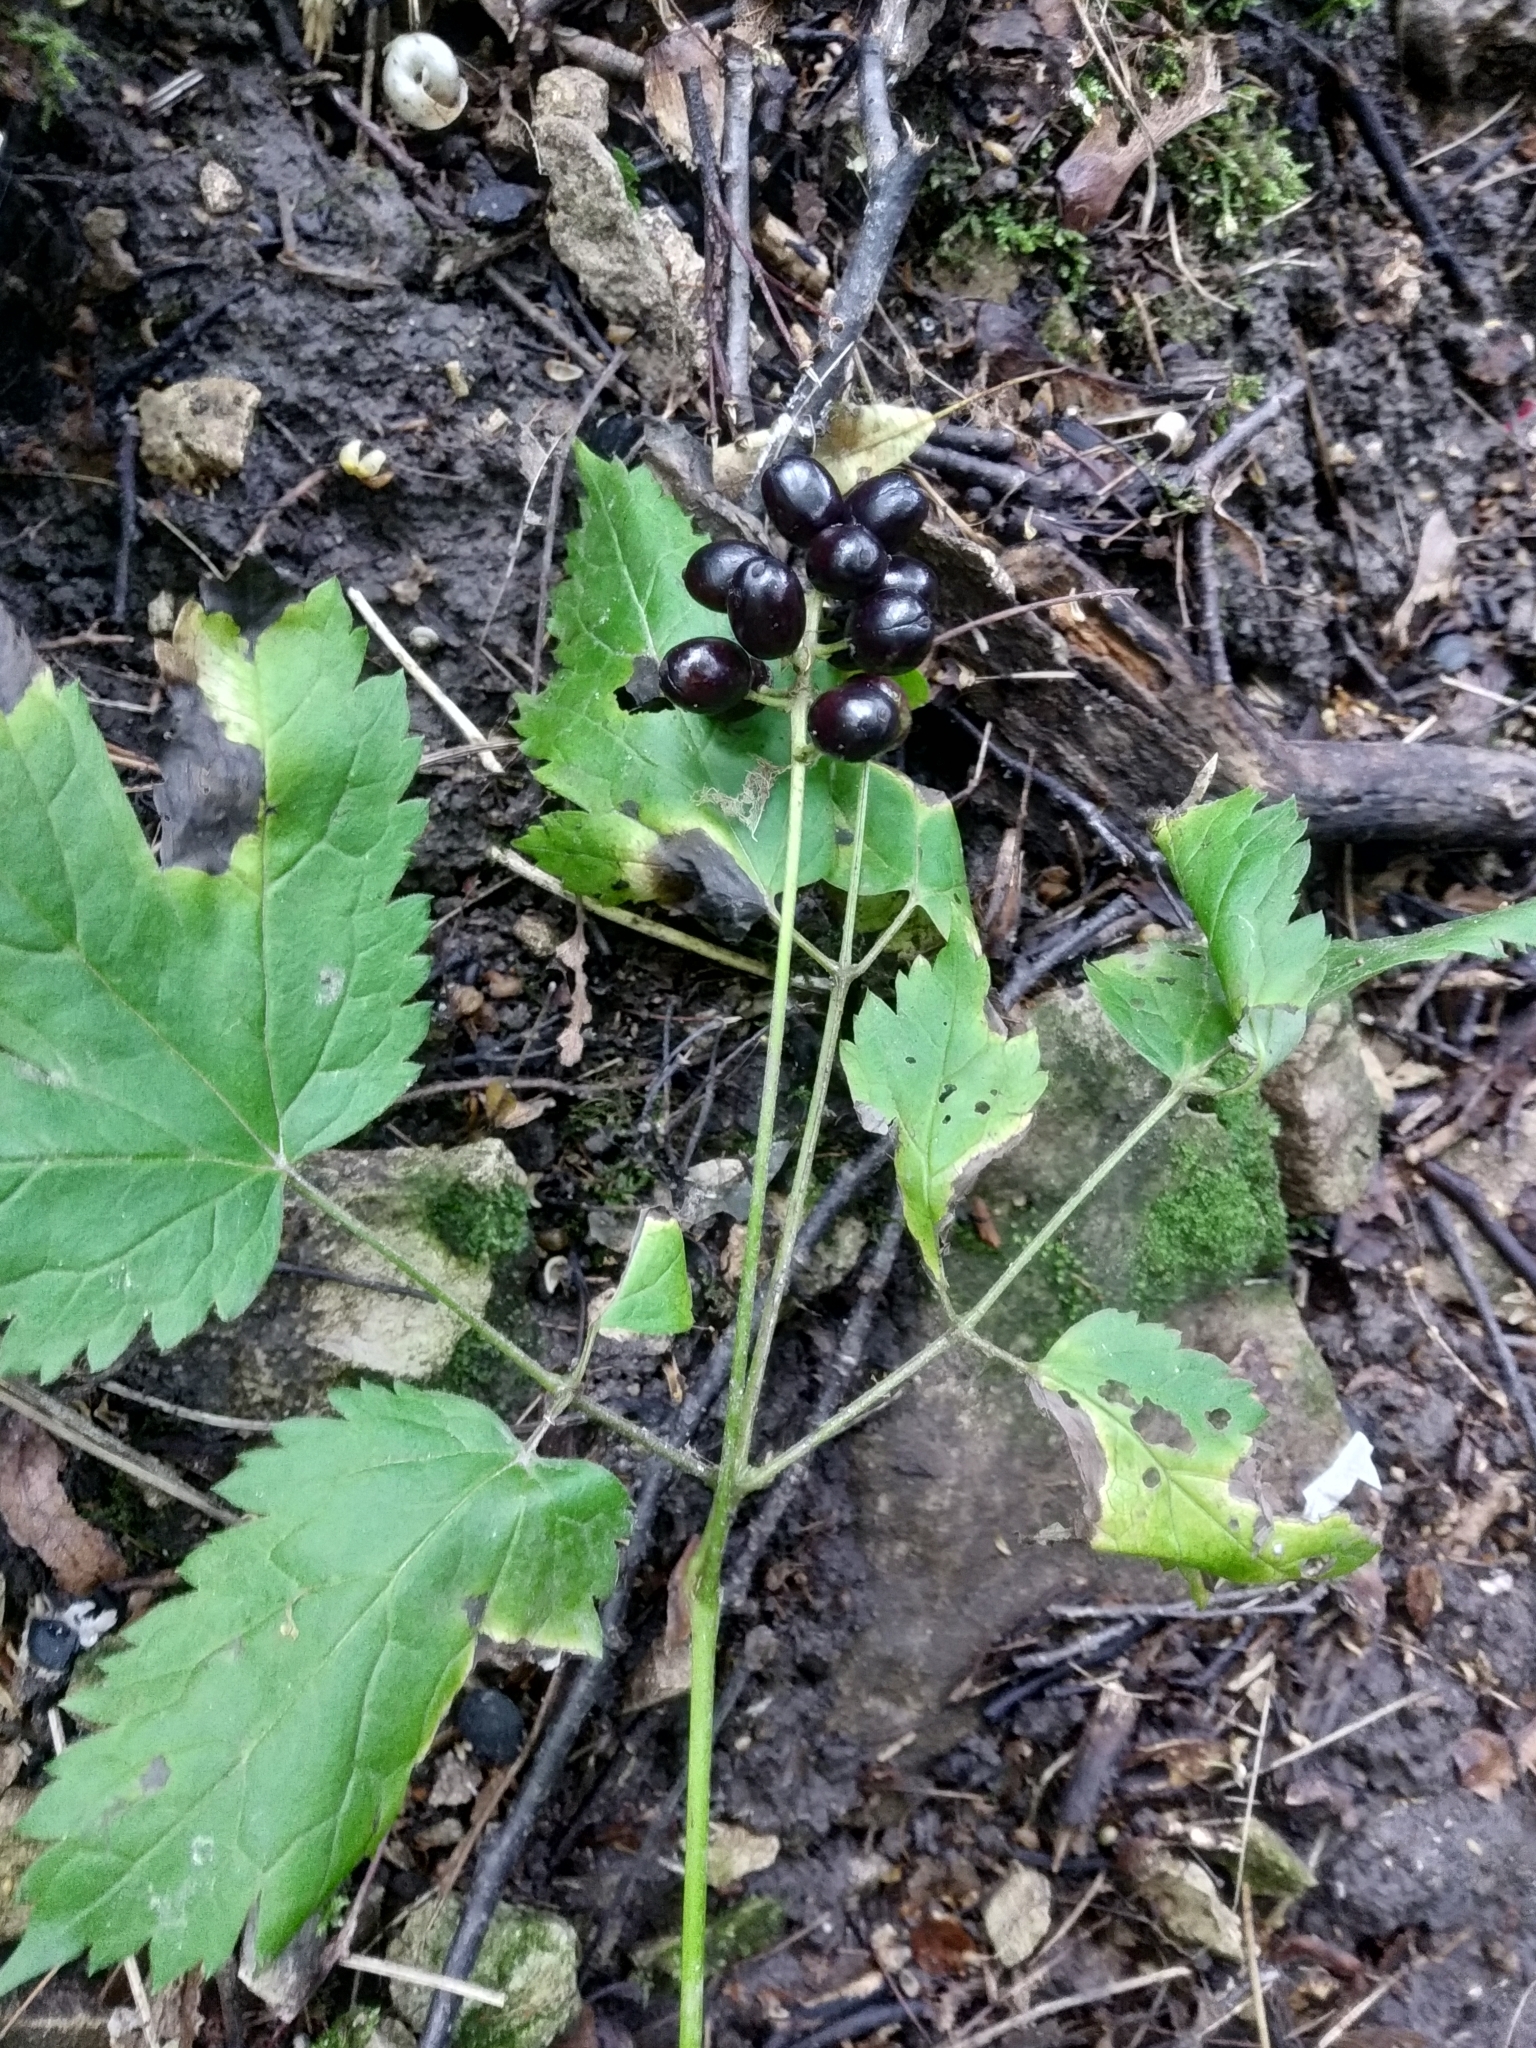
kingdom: Plantae
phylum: Tracheophyta
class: Magnoliopsida
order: Ranunculales
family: Ranunculaceae
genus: Actaea
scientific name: Actaea spicata
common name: Baneberry
